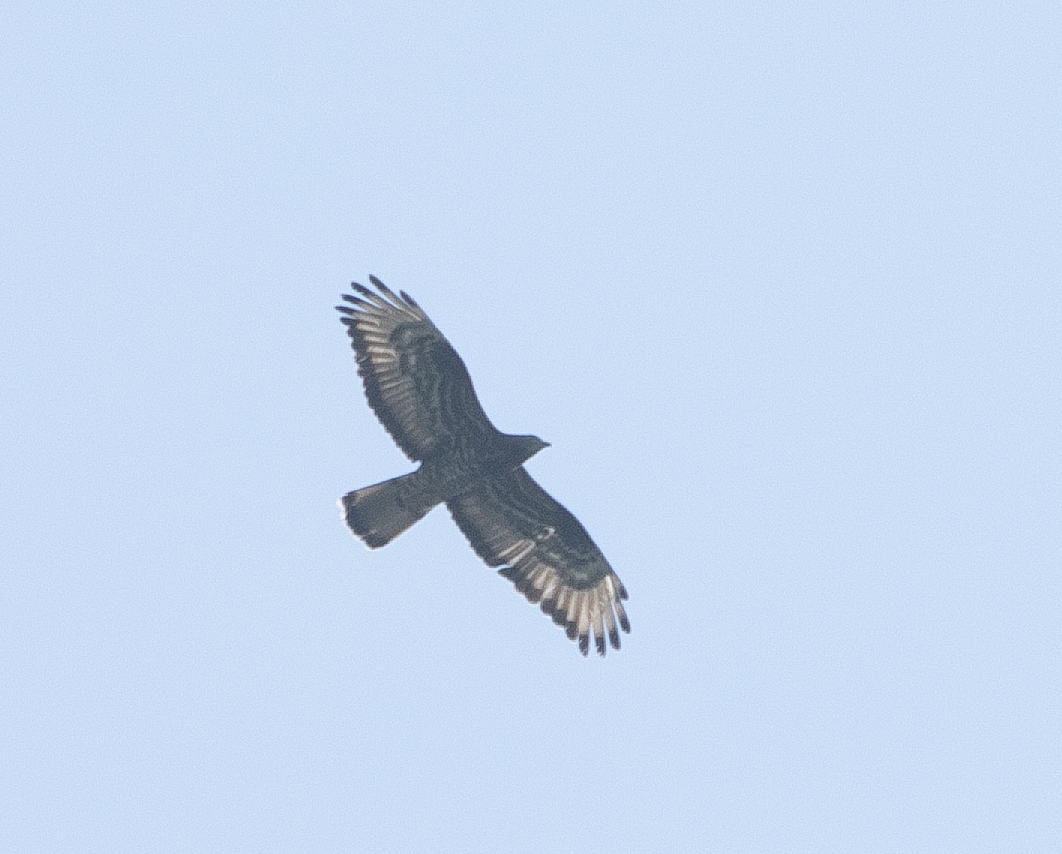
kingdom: Animalia
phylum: Chordata
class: Aves
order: Accipitriformes
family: Accipitridae
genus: Pernis
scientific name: Pernis apivorus
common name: European honey buzzard
